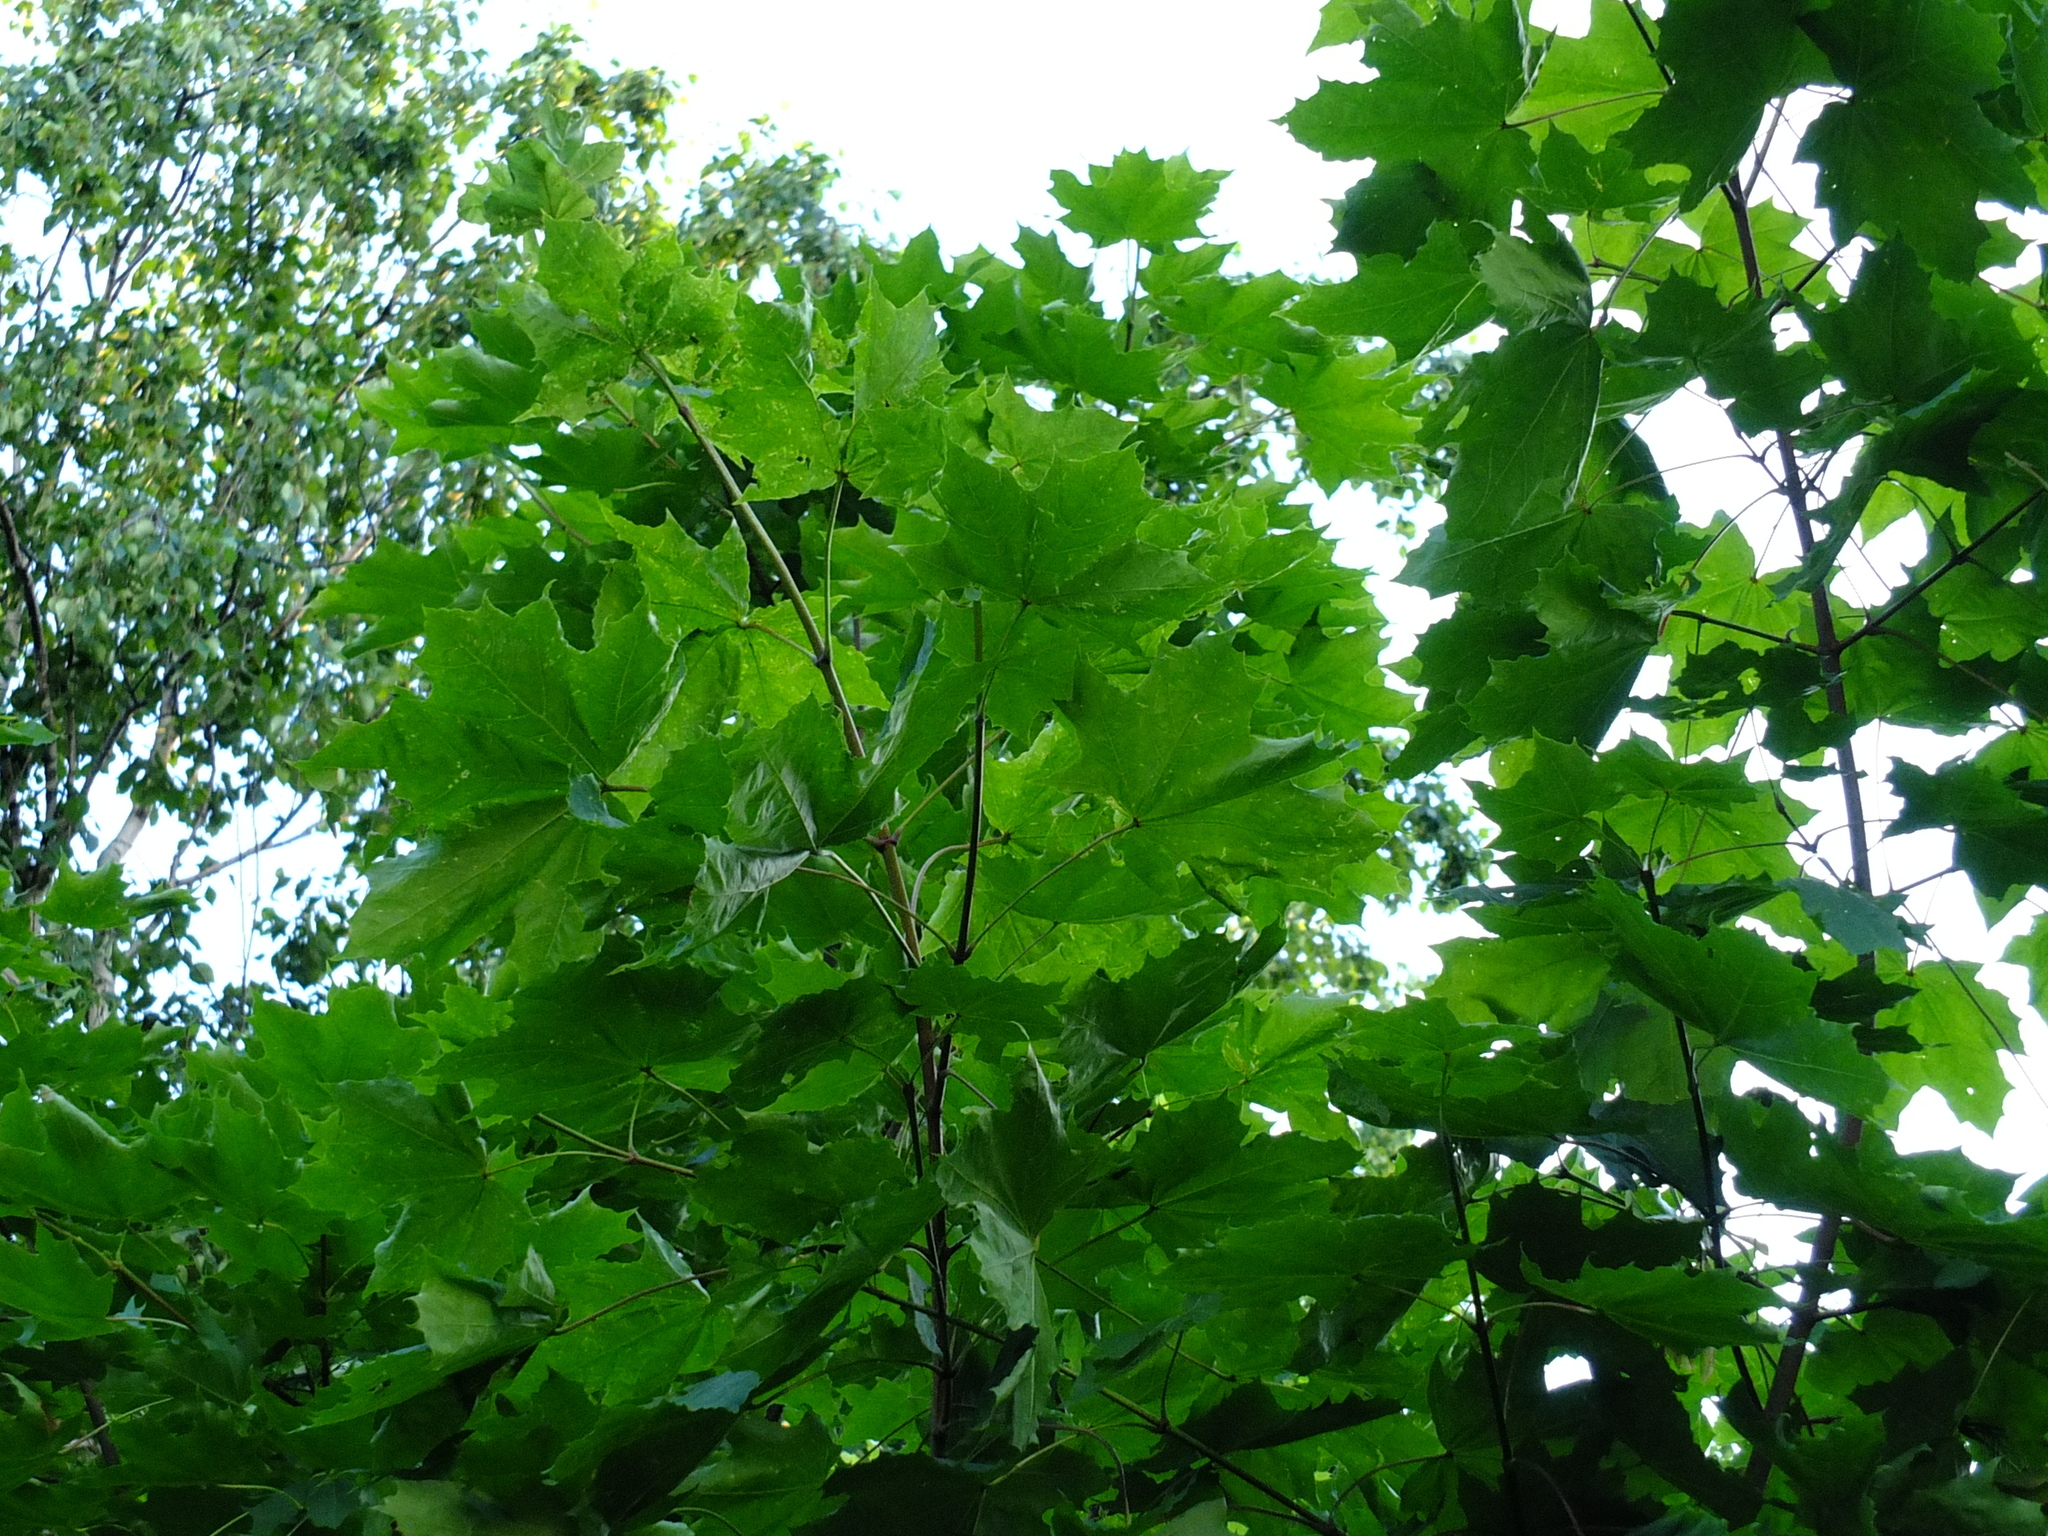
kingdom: Plantae
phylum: Tracheophyta
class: Magnoliopsida
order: Sapindales
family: Sapindaceae
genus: Acer
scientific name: Acer platanoides
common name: Norway maple
